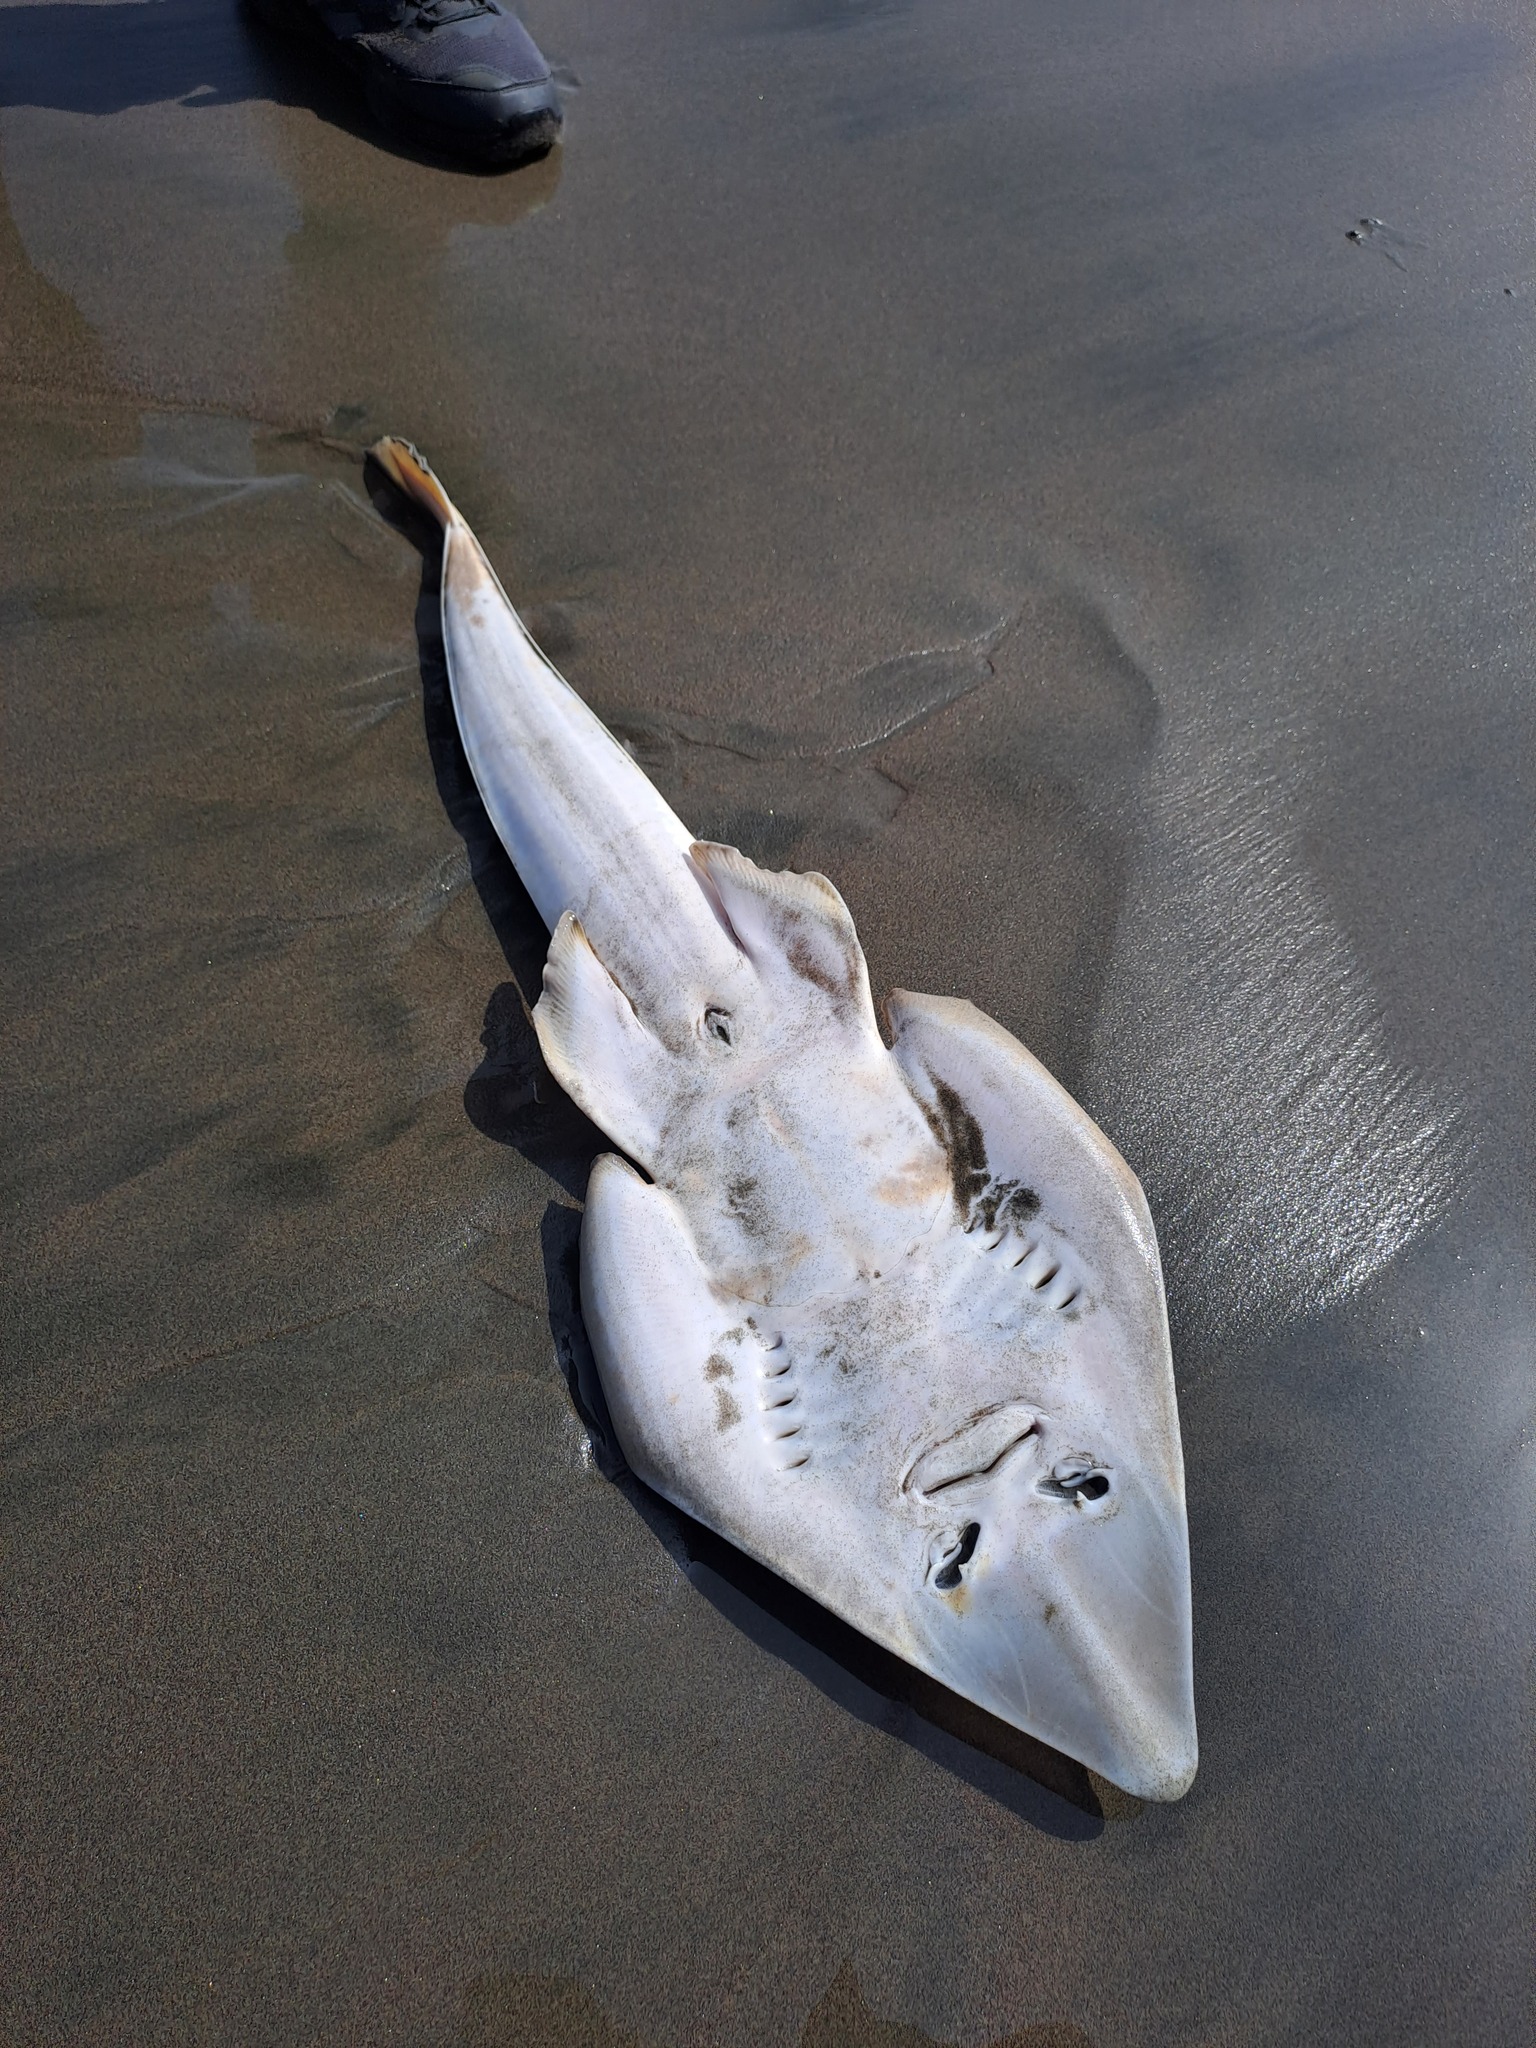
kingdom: Animalia
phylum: Chordata
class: Elasmobranchii
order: Rhinopristiformes
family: Rhinobatidae
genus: Pseudobatos
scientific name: Pseudobatos planiceps
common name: Pacific guitarfish
